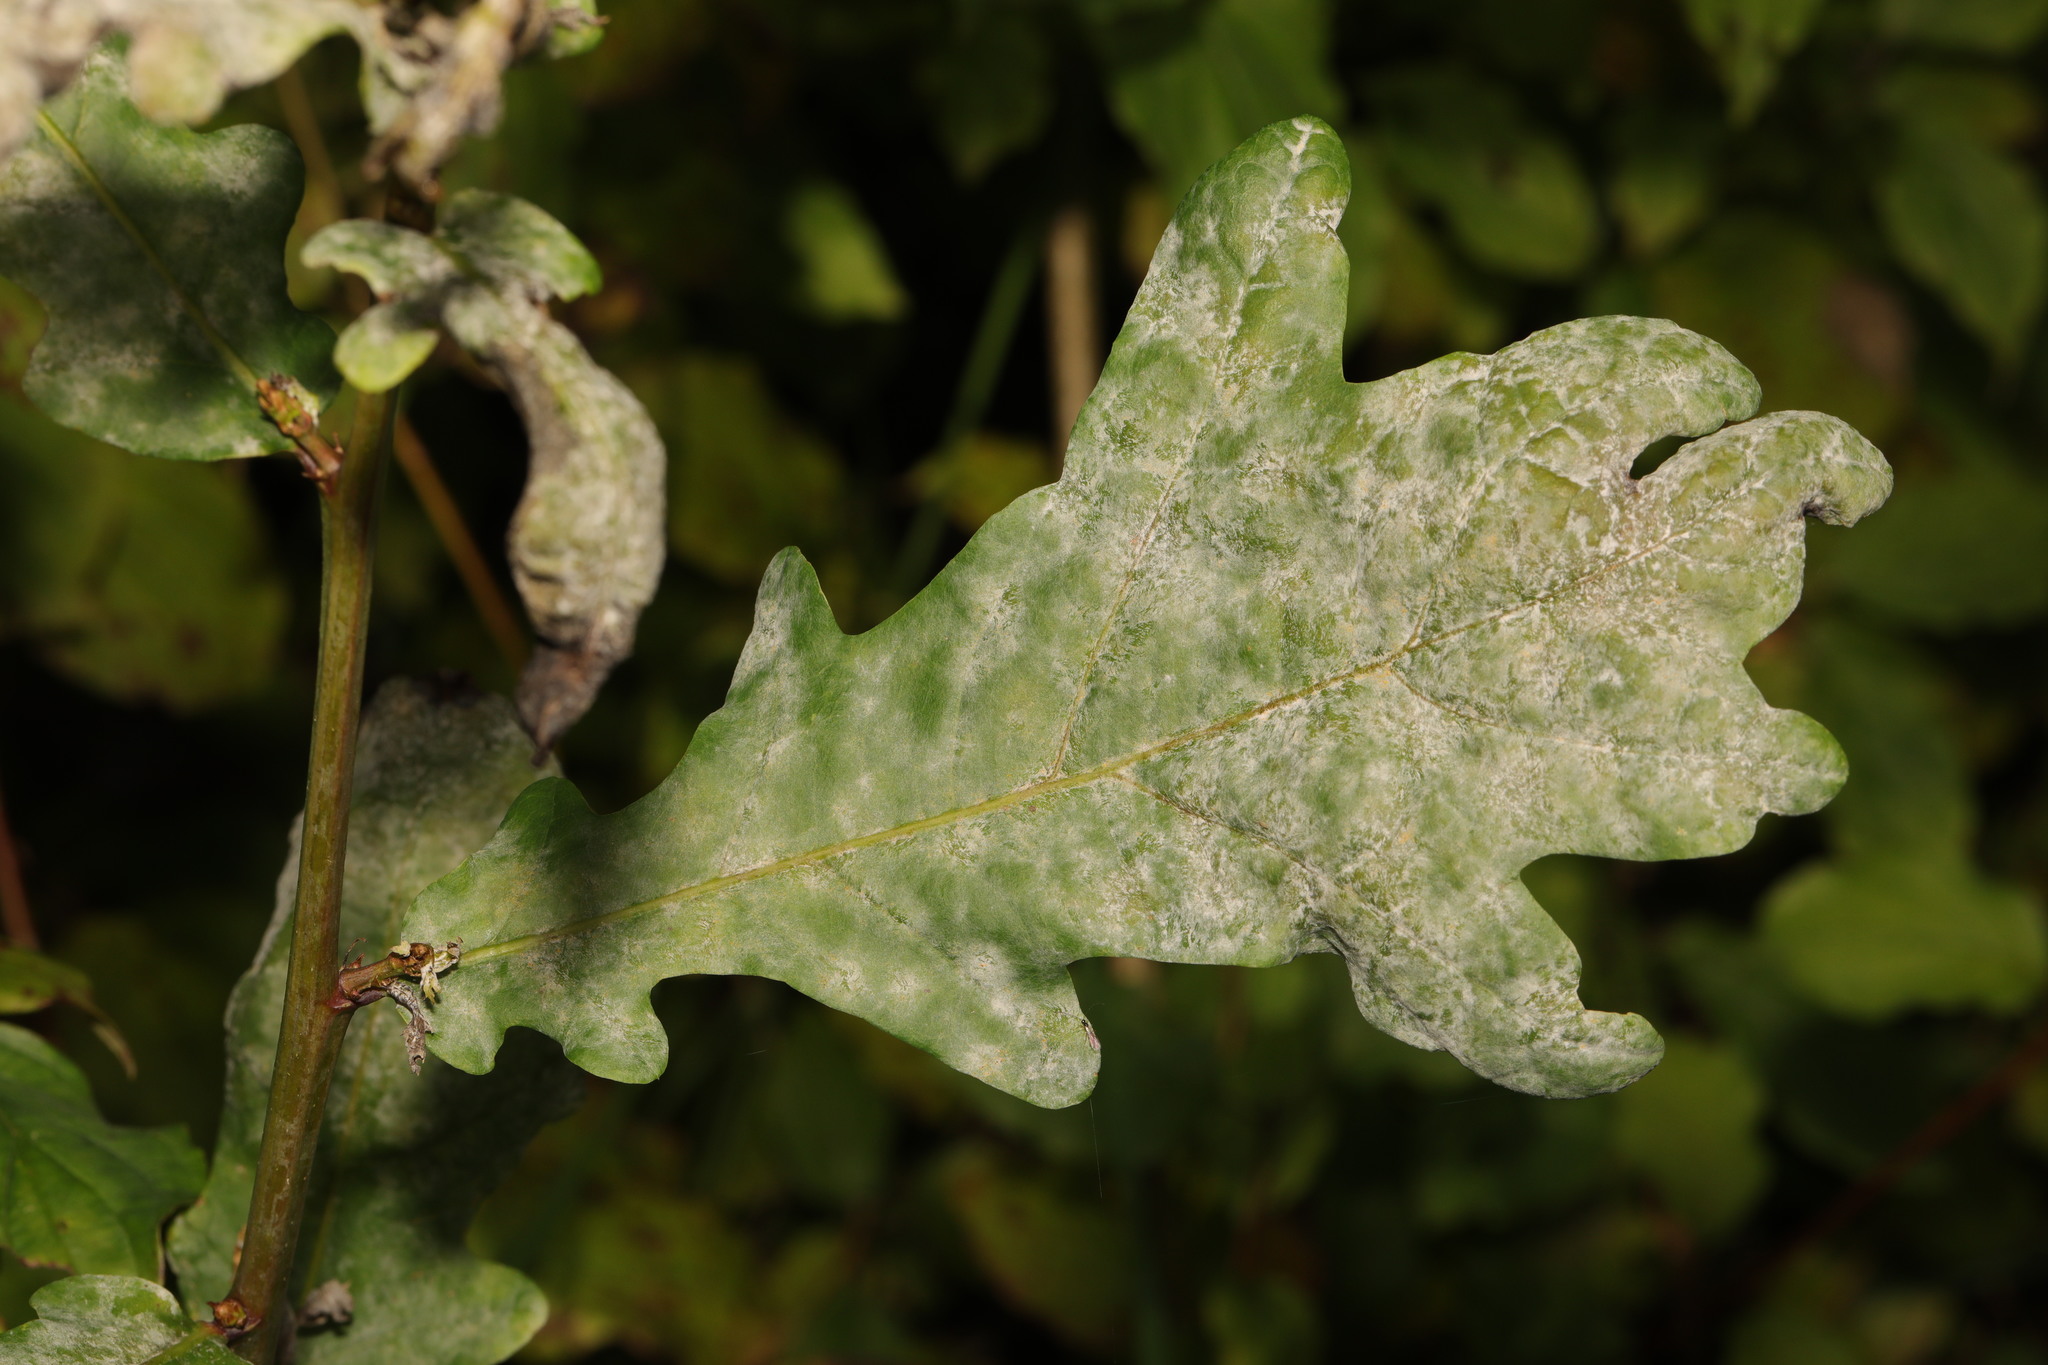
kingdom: Fungi
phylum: Ascomycota
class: Leotiomycetes
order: Helotiales
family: Erysiphaceae
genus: Erysiphe
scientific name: Erysiphe alphitoides
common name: Oak mildew
